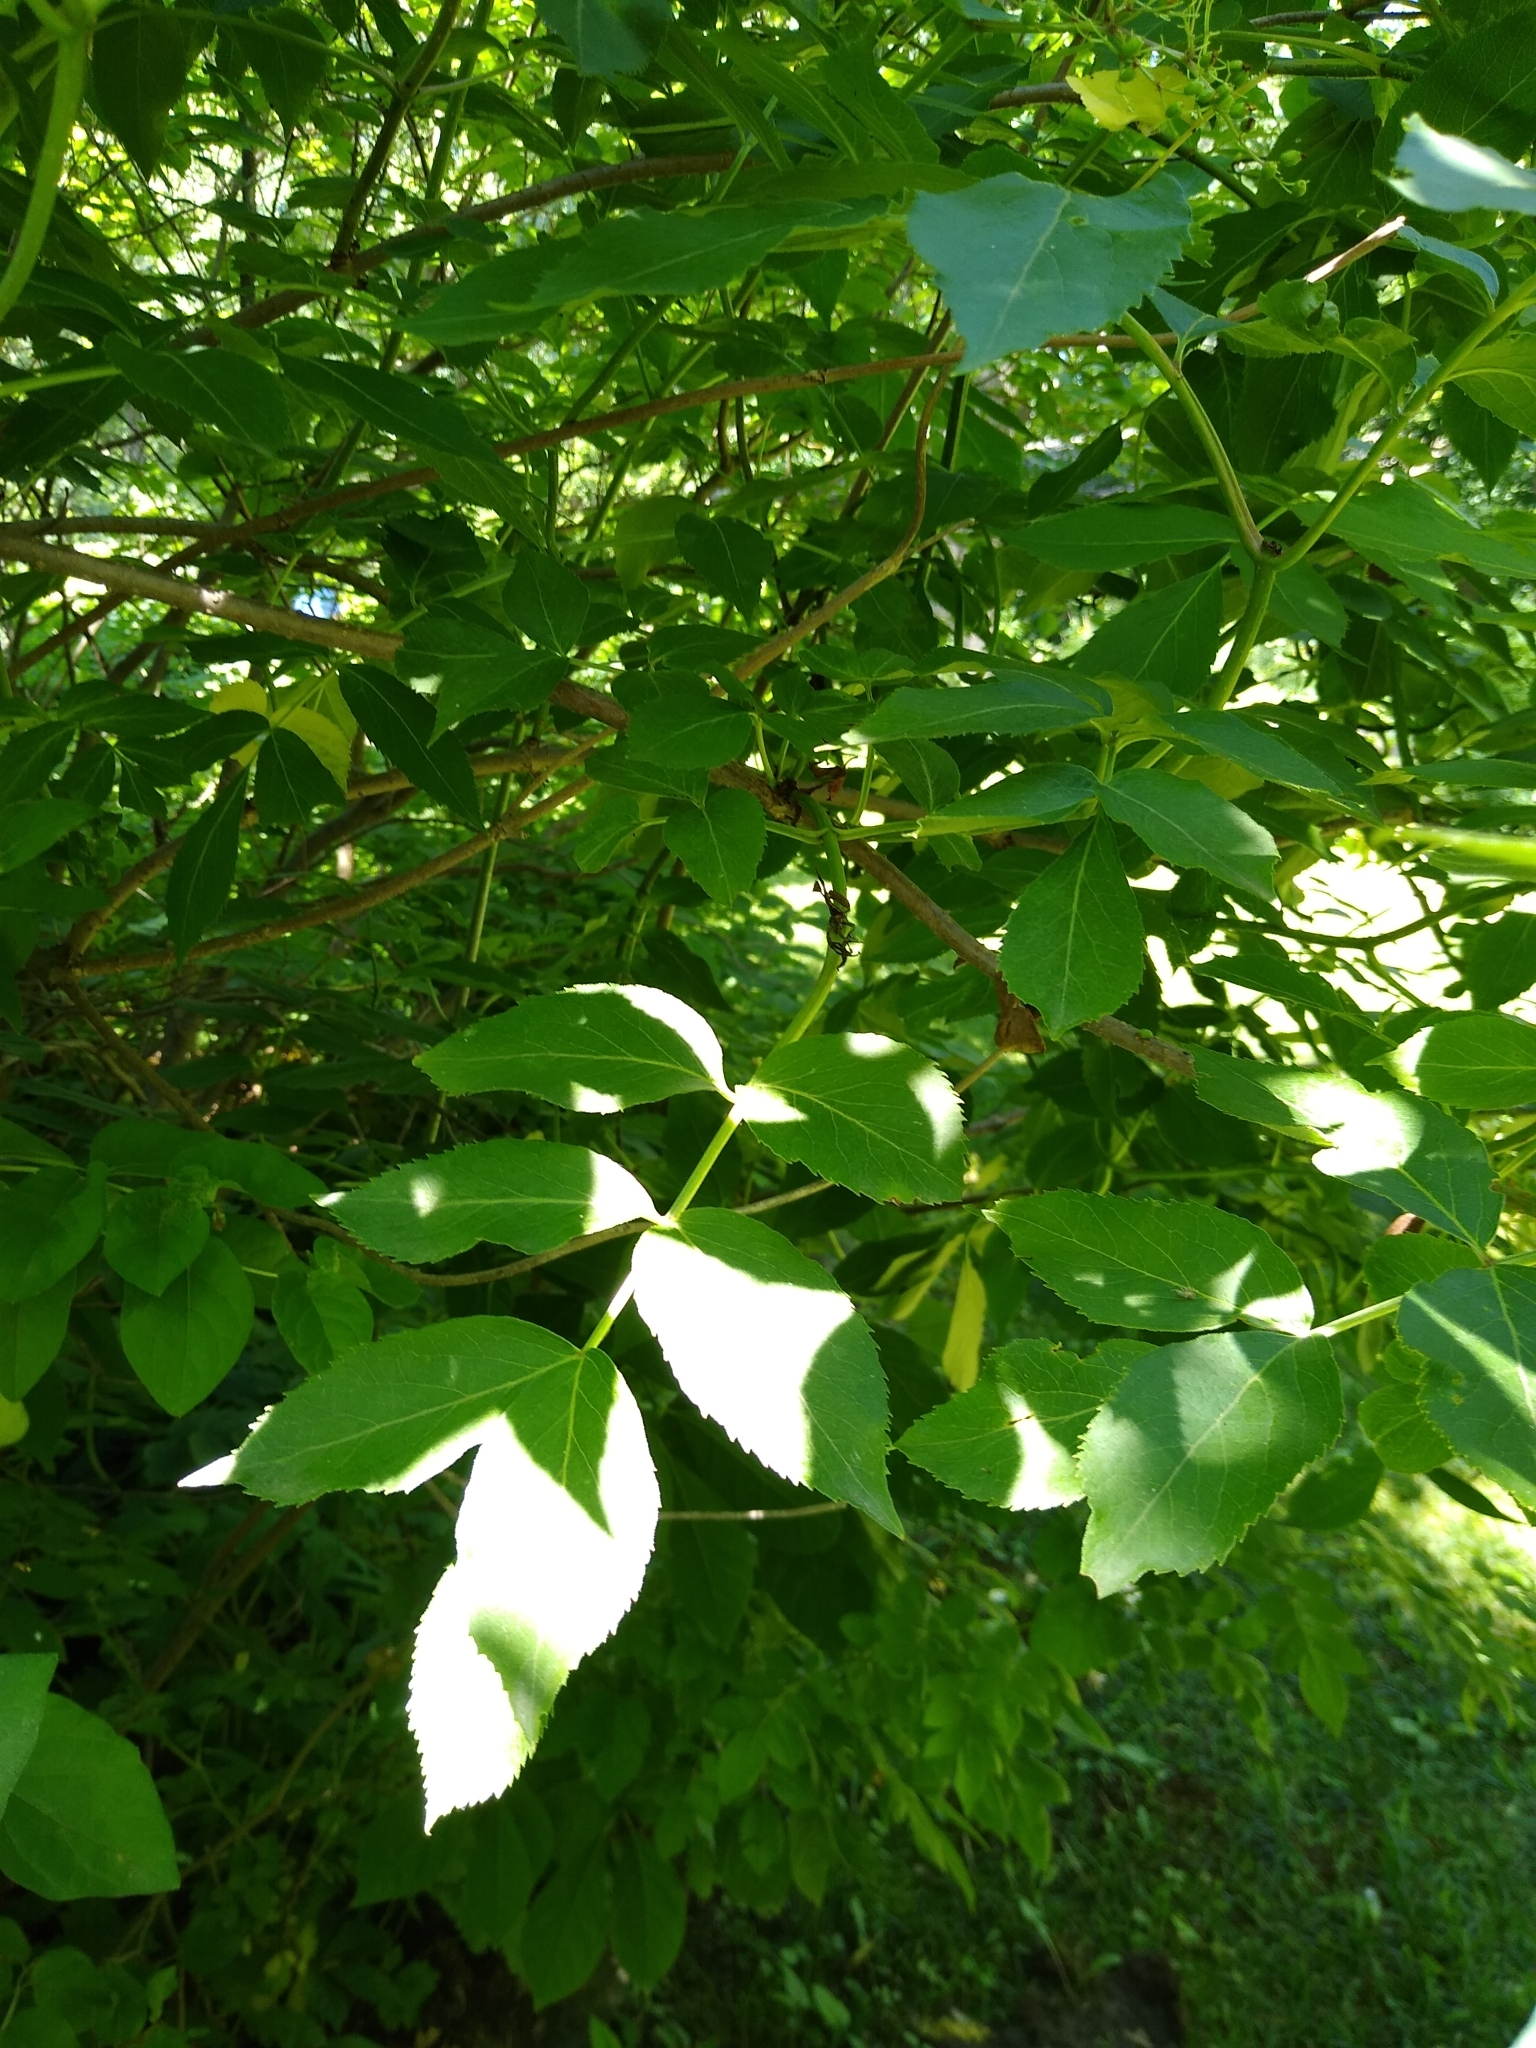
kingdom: Plantae
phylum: Tracheophyta
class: Magnoliopsida
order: Dipsacales
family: Viburnaceae
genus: Sambucus
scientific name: Sambucus canadensis
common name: American elder
